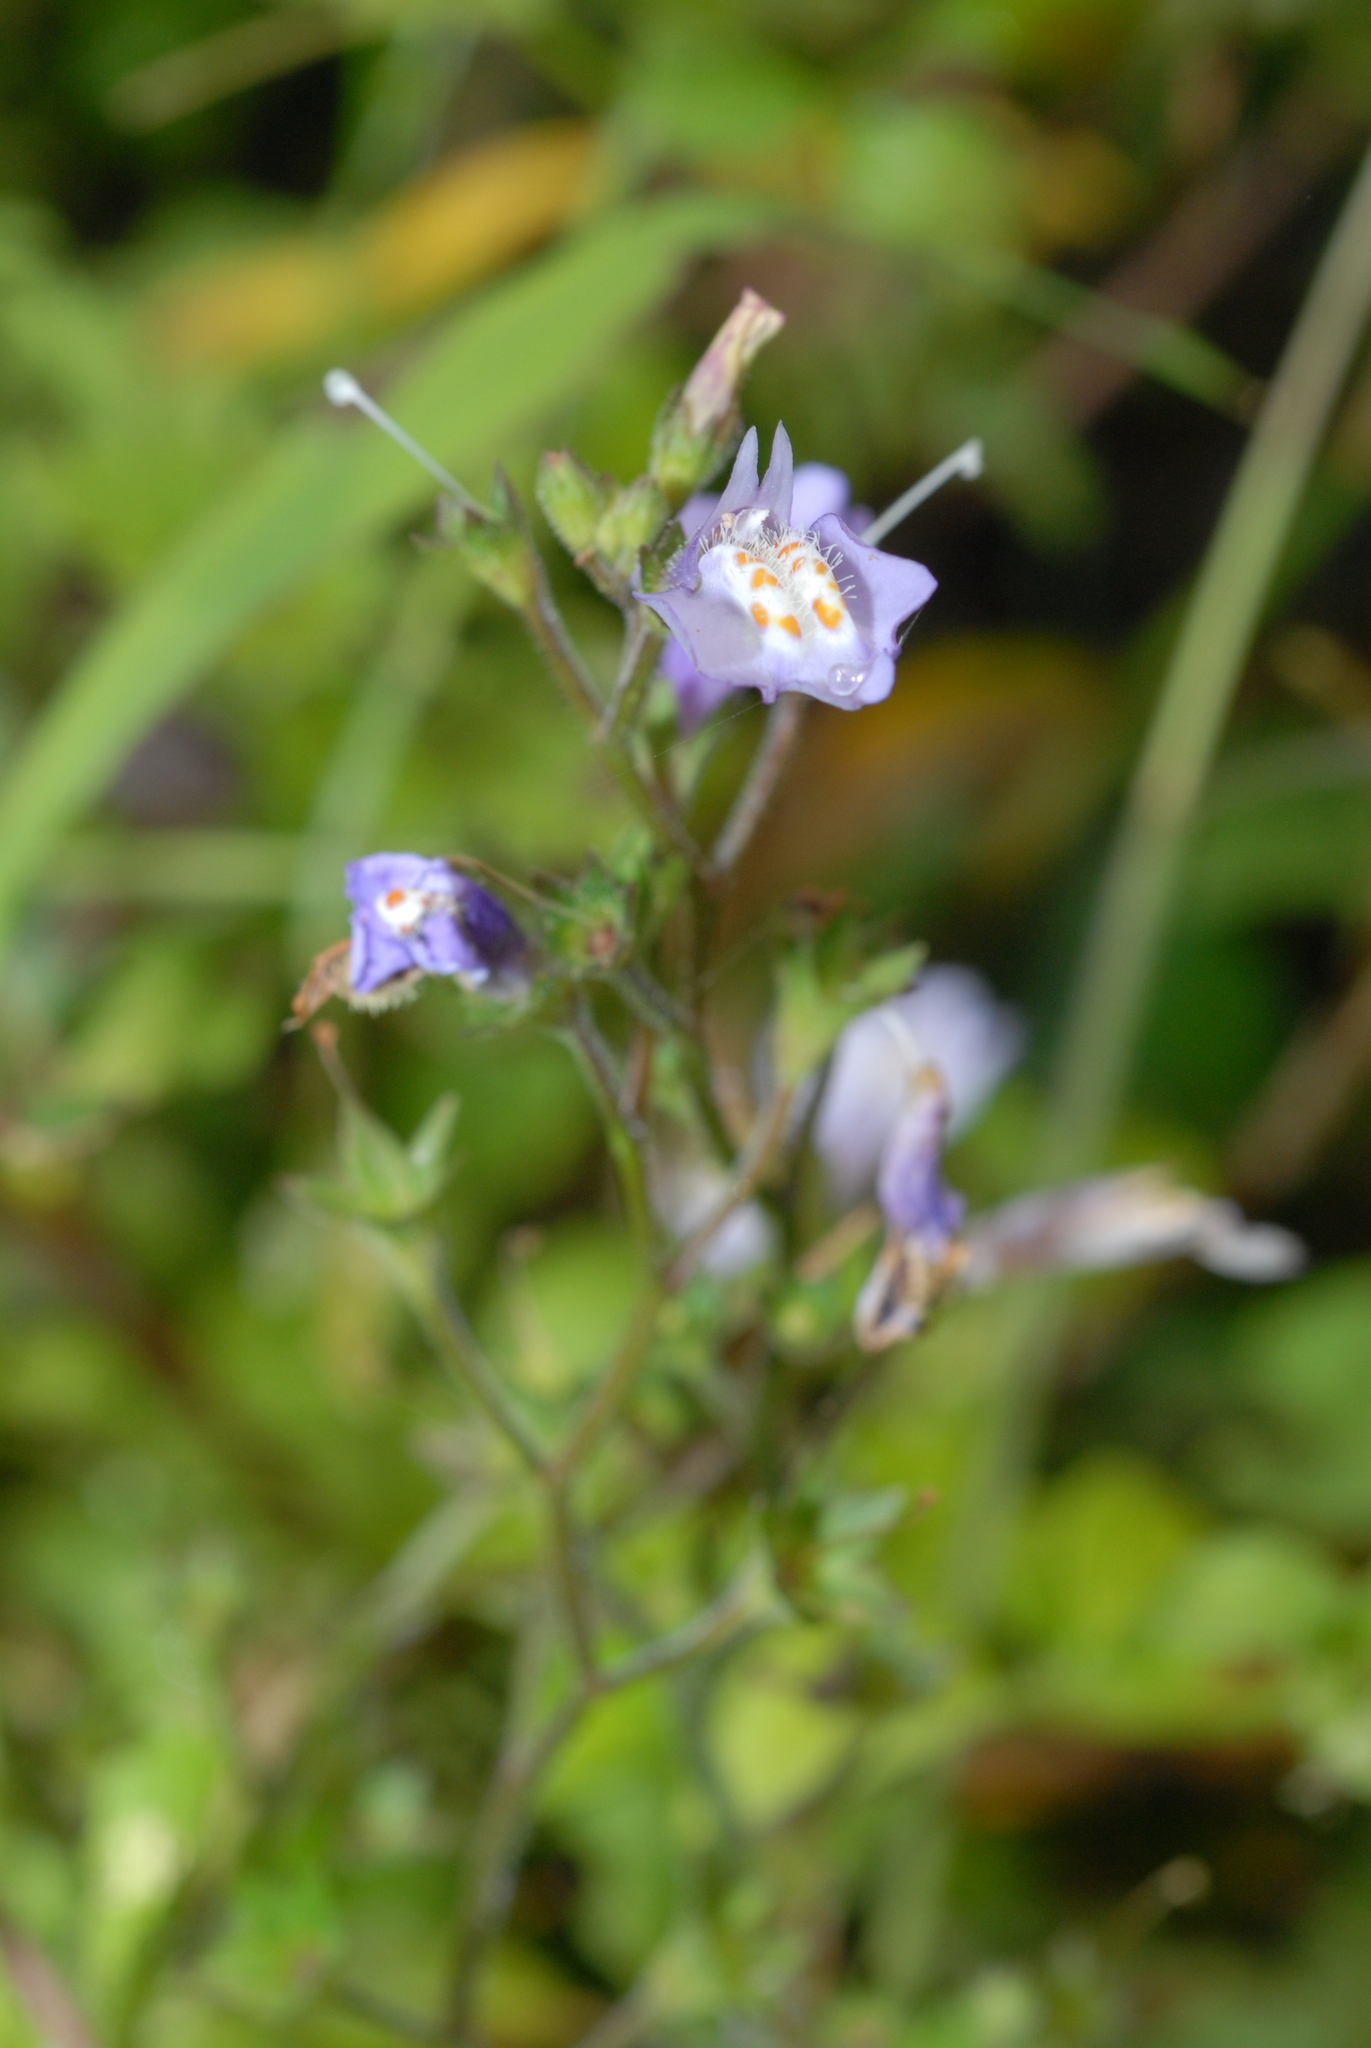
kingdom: Plantae
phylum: Tracheophyta
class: Magnoliopsida
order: Lamiales
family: Mazaceae
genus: Mazus
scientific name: Mazus fauriei
